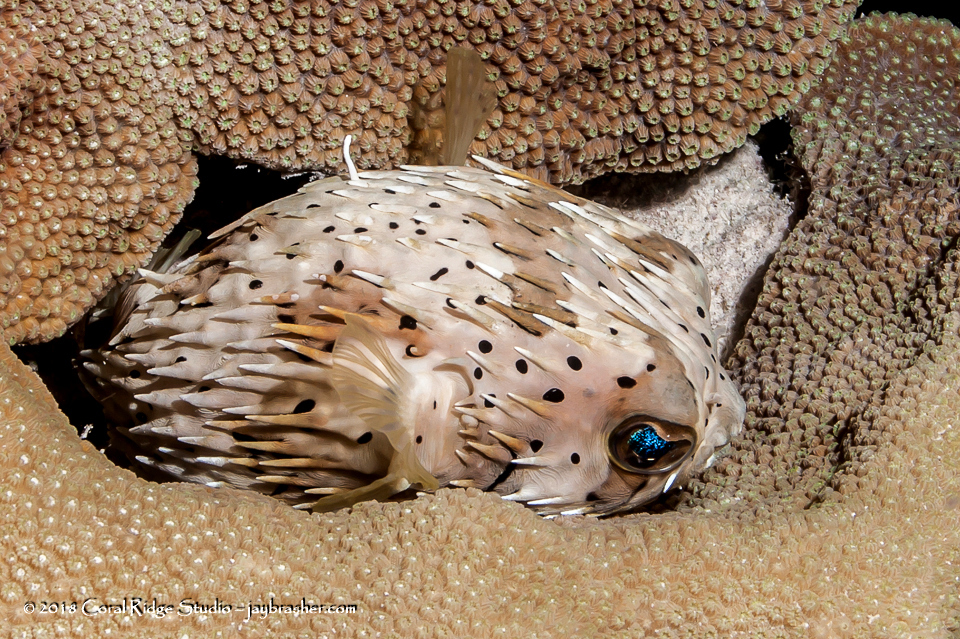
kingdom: Animalia
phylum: Chordata
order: Tetraodontiformes
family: Diodontidae
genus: Diodon
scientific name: Diodon holocanthus
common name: Balloonfish
